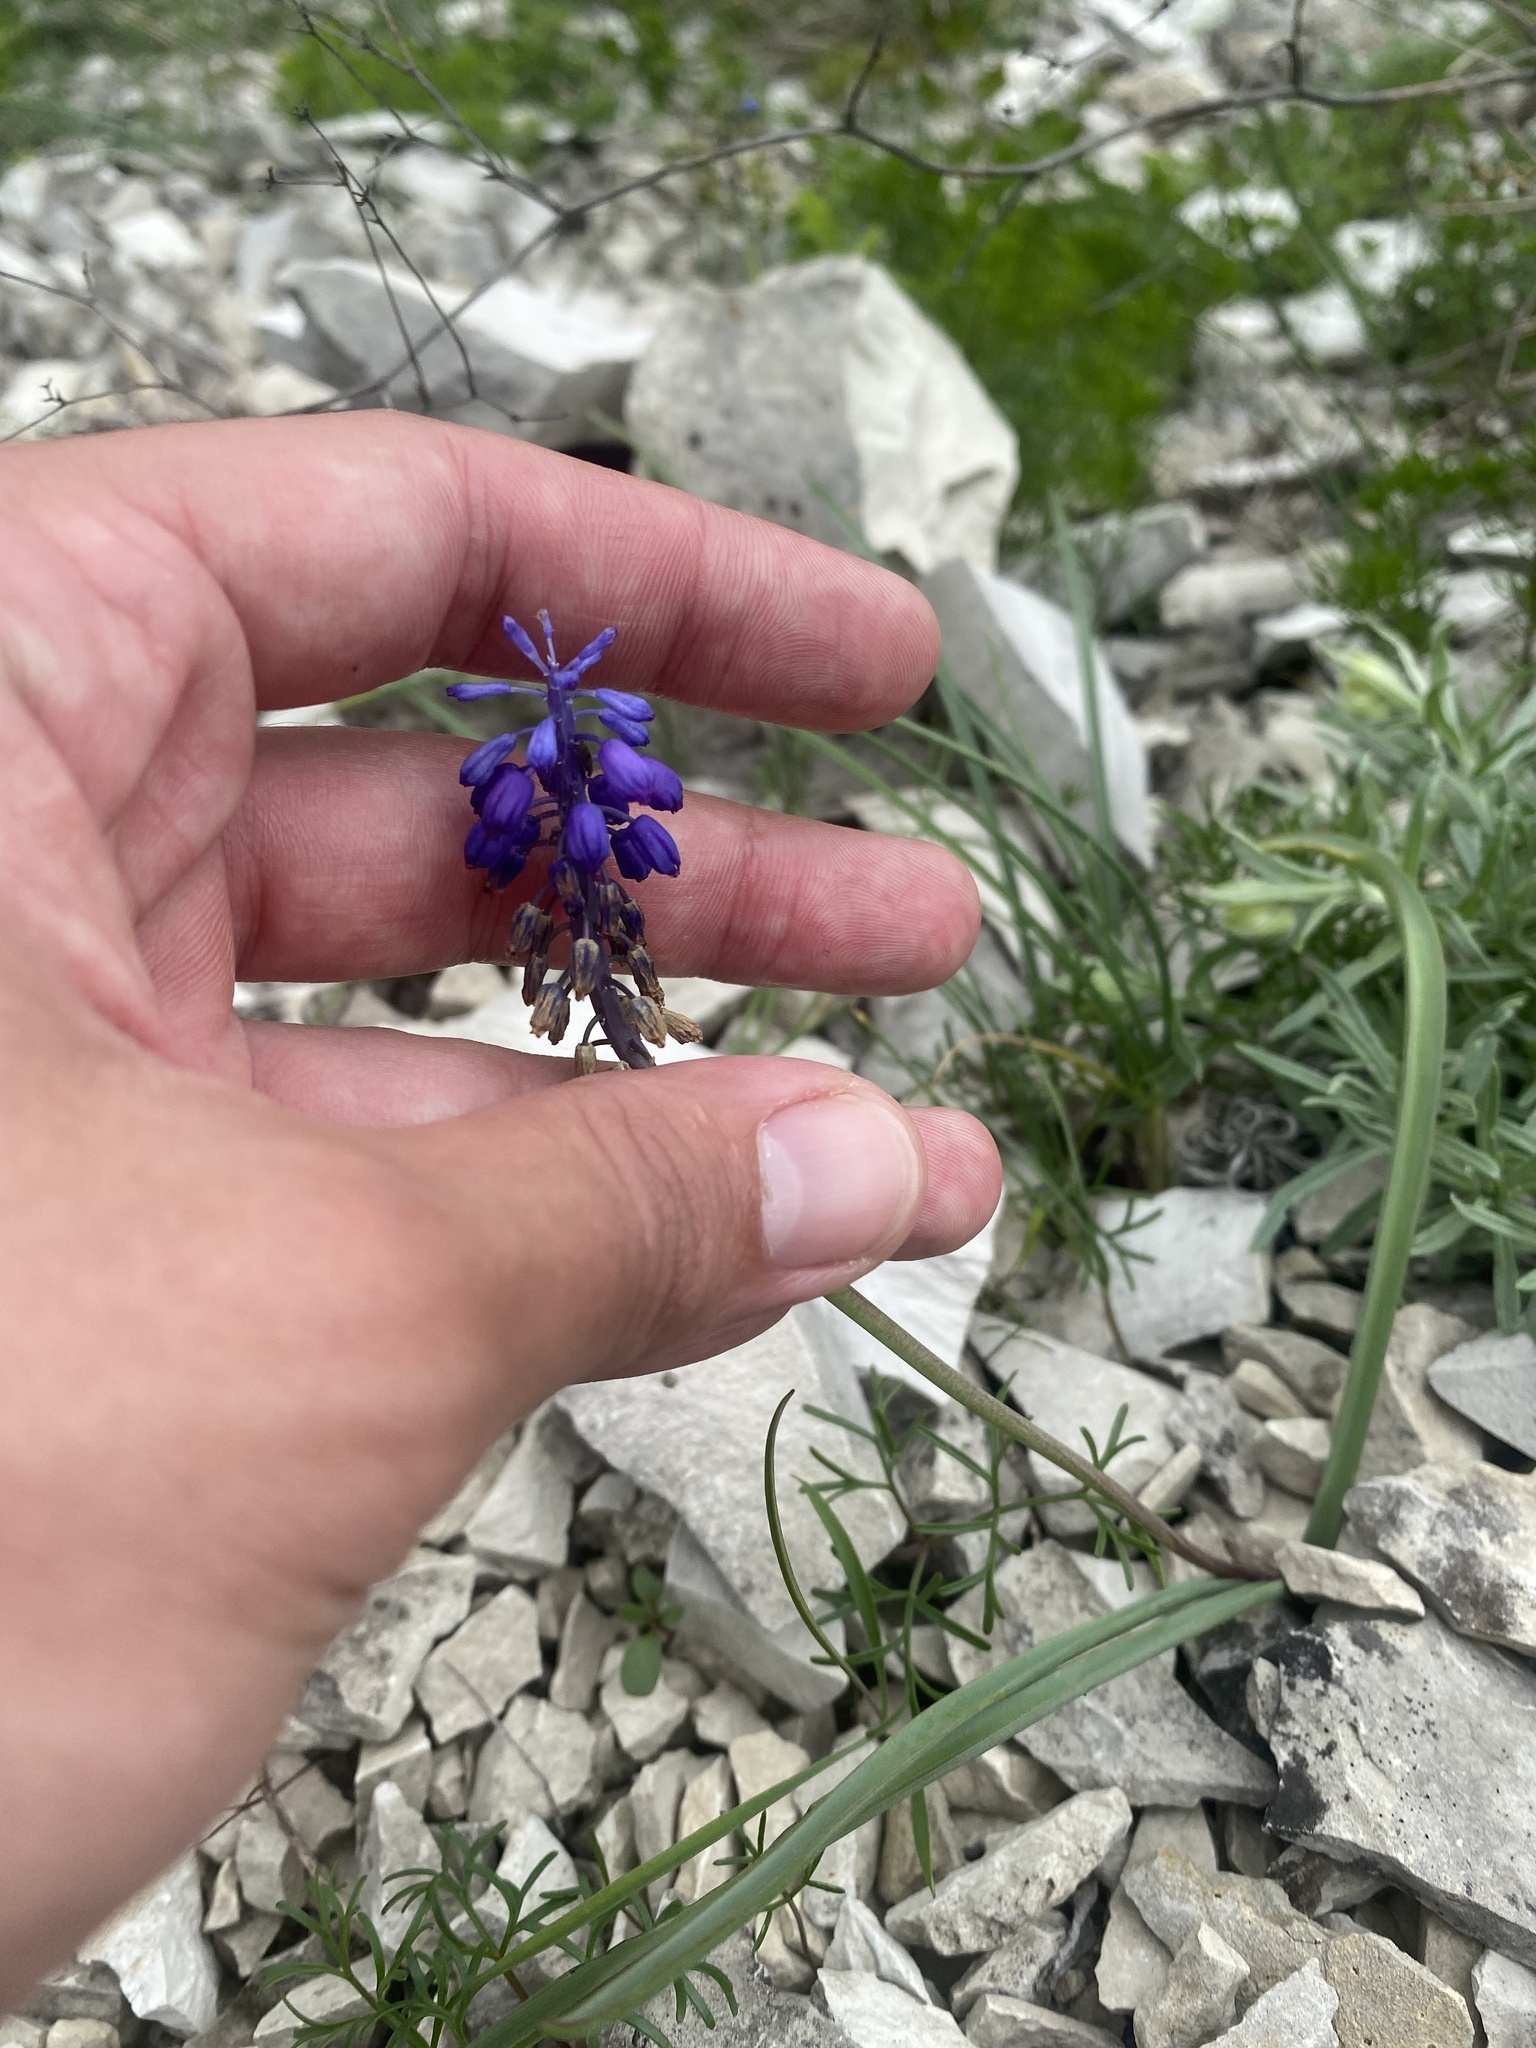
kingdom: Plantae
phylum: Tracheophyta
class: Liliopsida
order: Asparagales
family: Asparagaceae
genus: Muscari
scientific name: Muscari neglectum
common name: Grape-hyacinth
